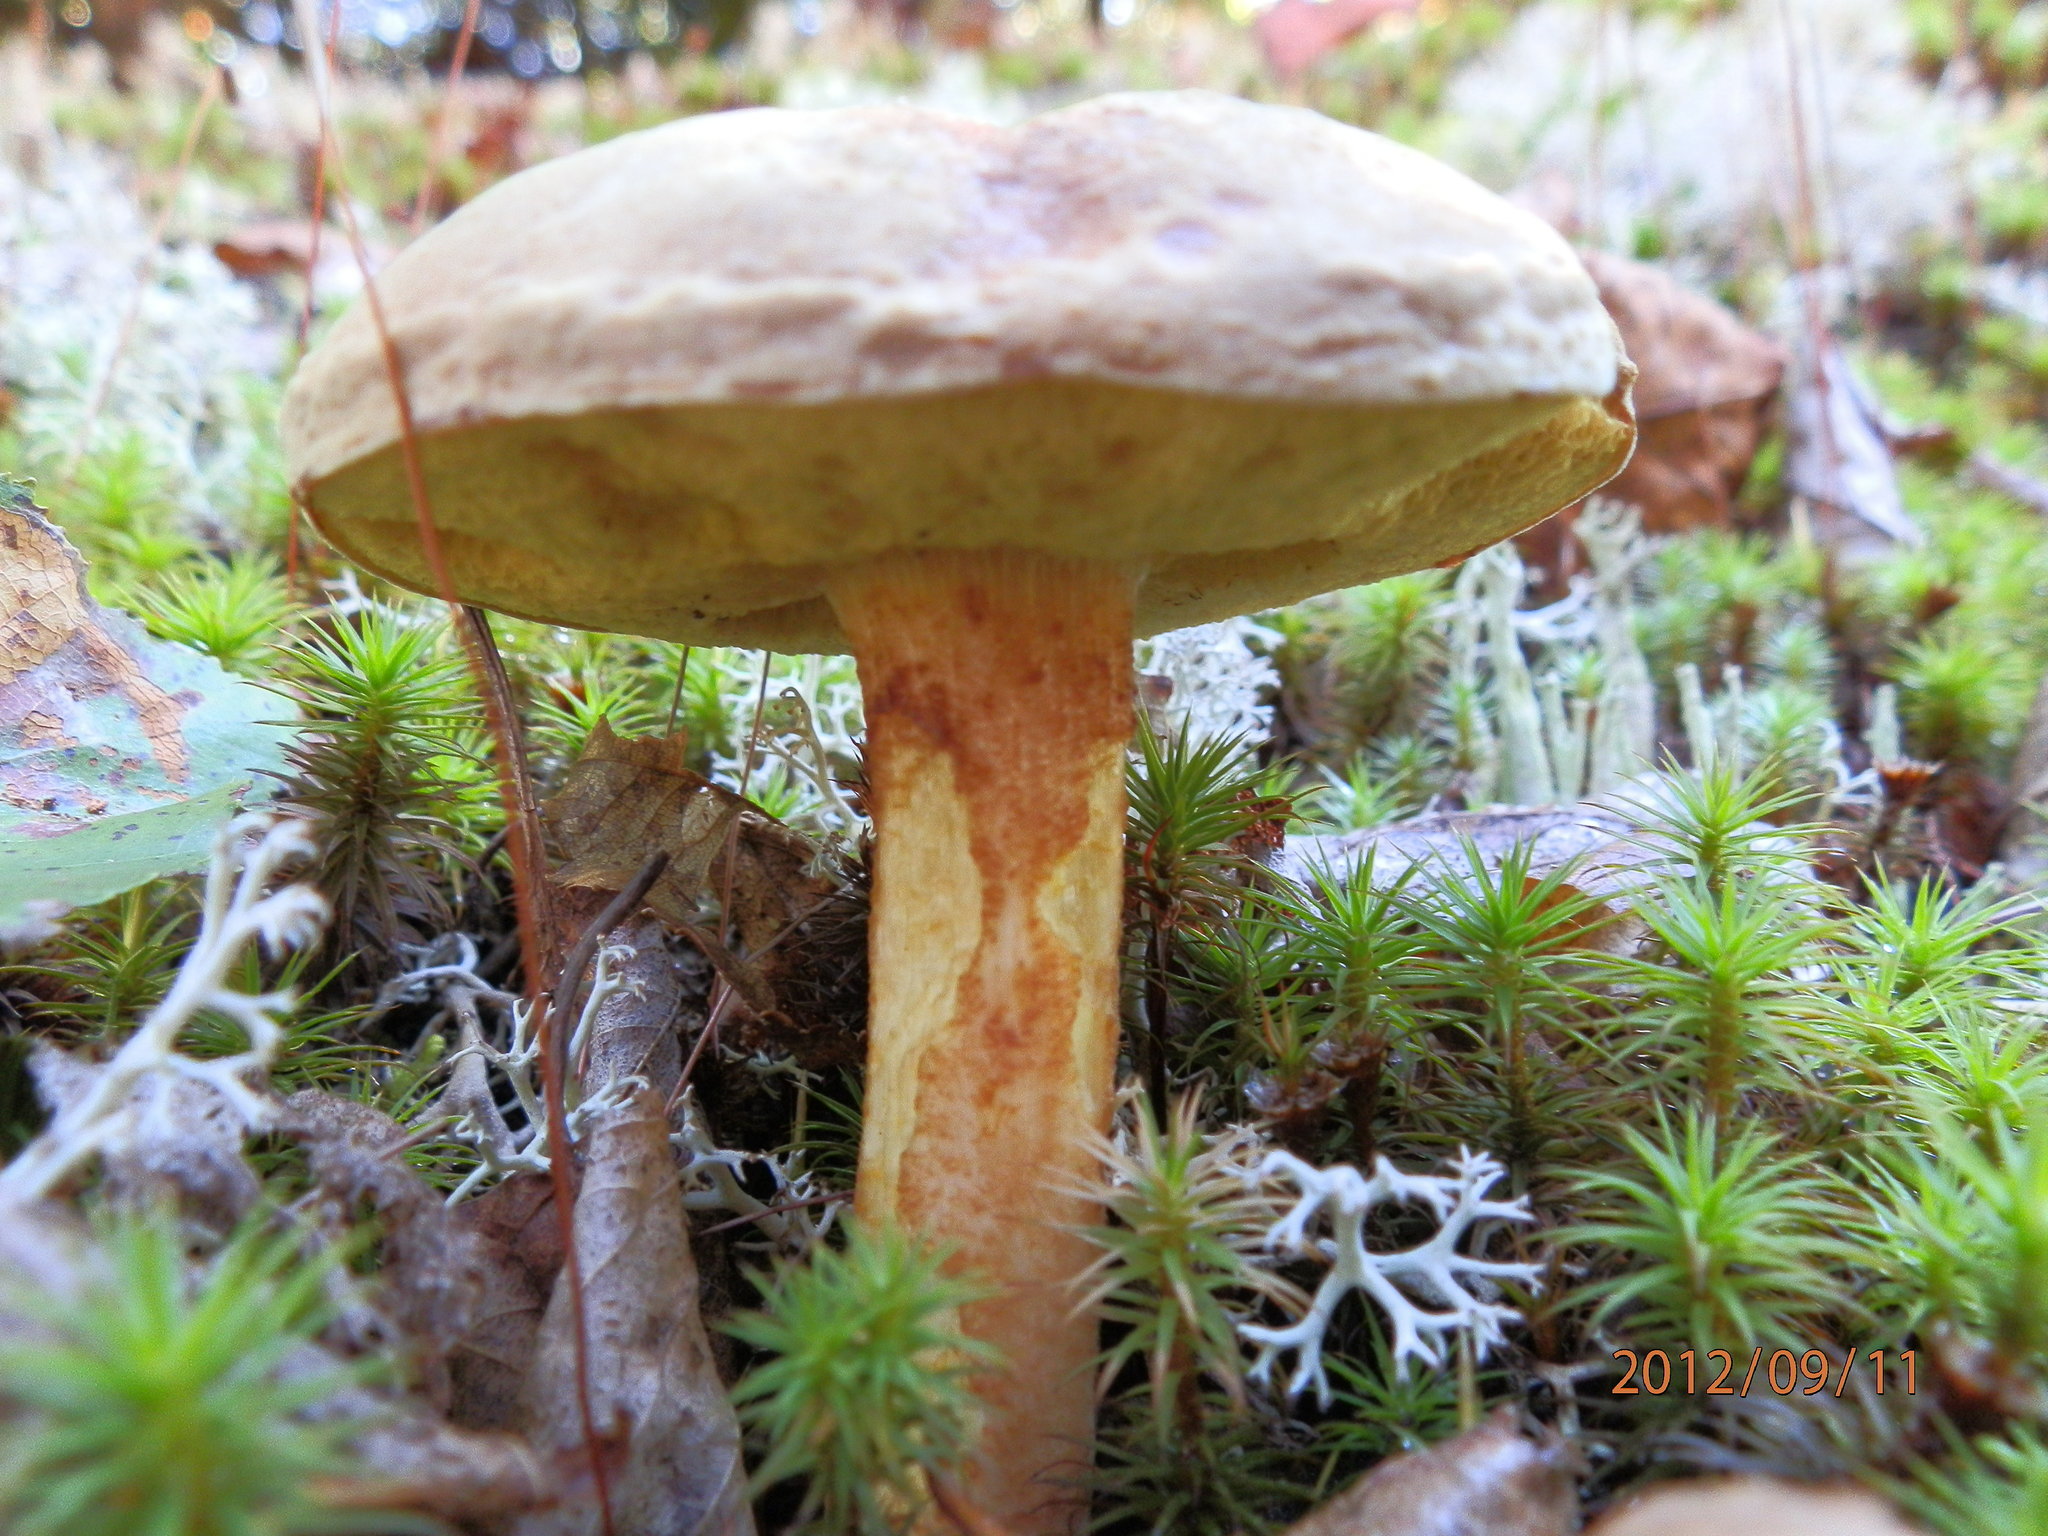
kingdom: Fungi
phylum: Basidiomycota
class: Agaricomycetes
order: Boletales
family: Boletaceae
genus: Xerocomus
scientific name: Xerocomus subtomentosus
